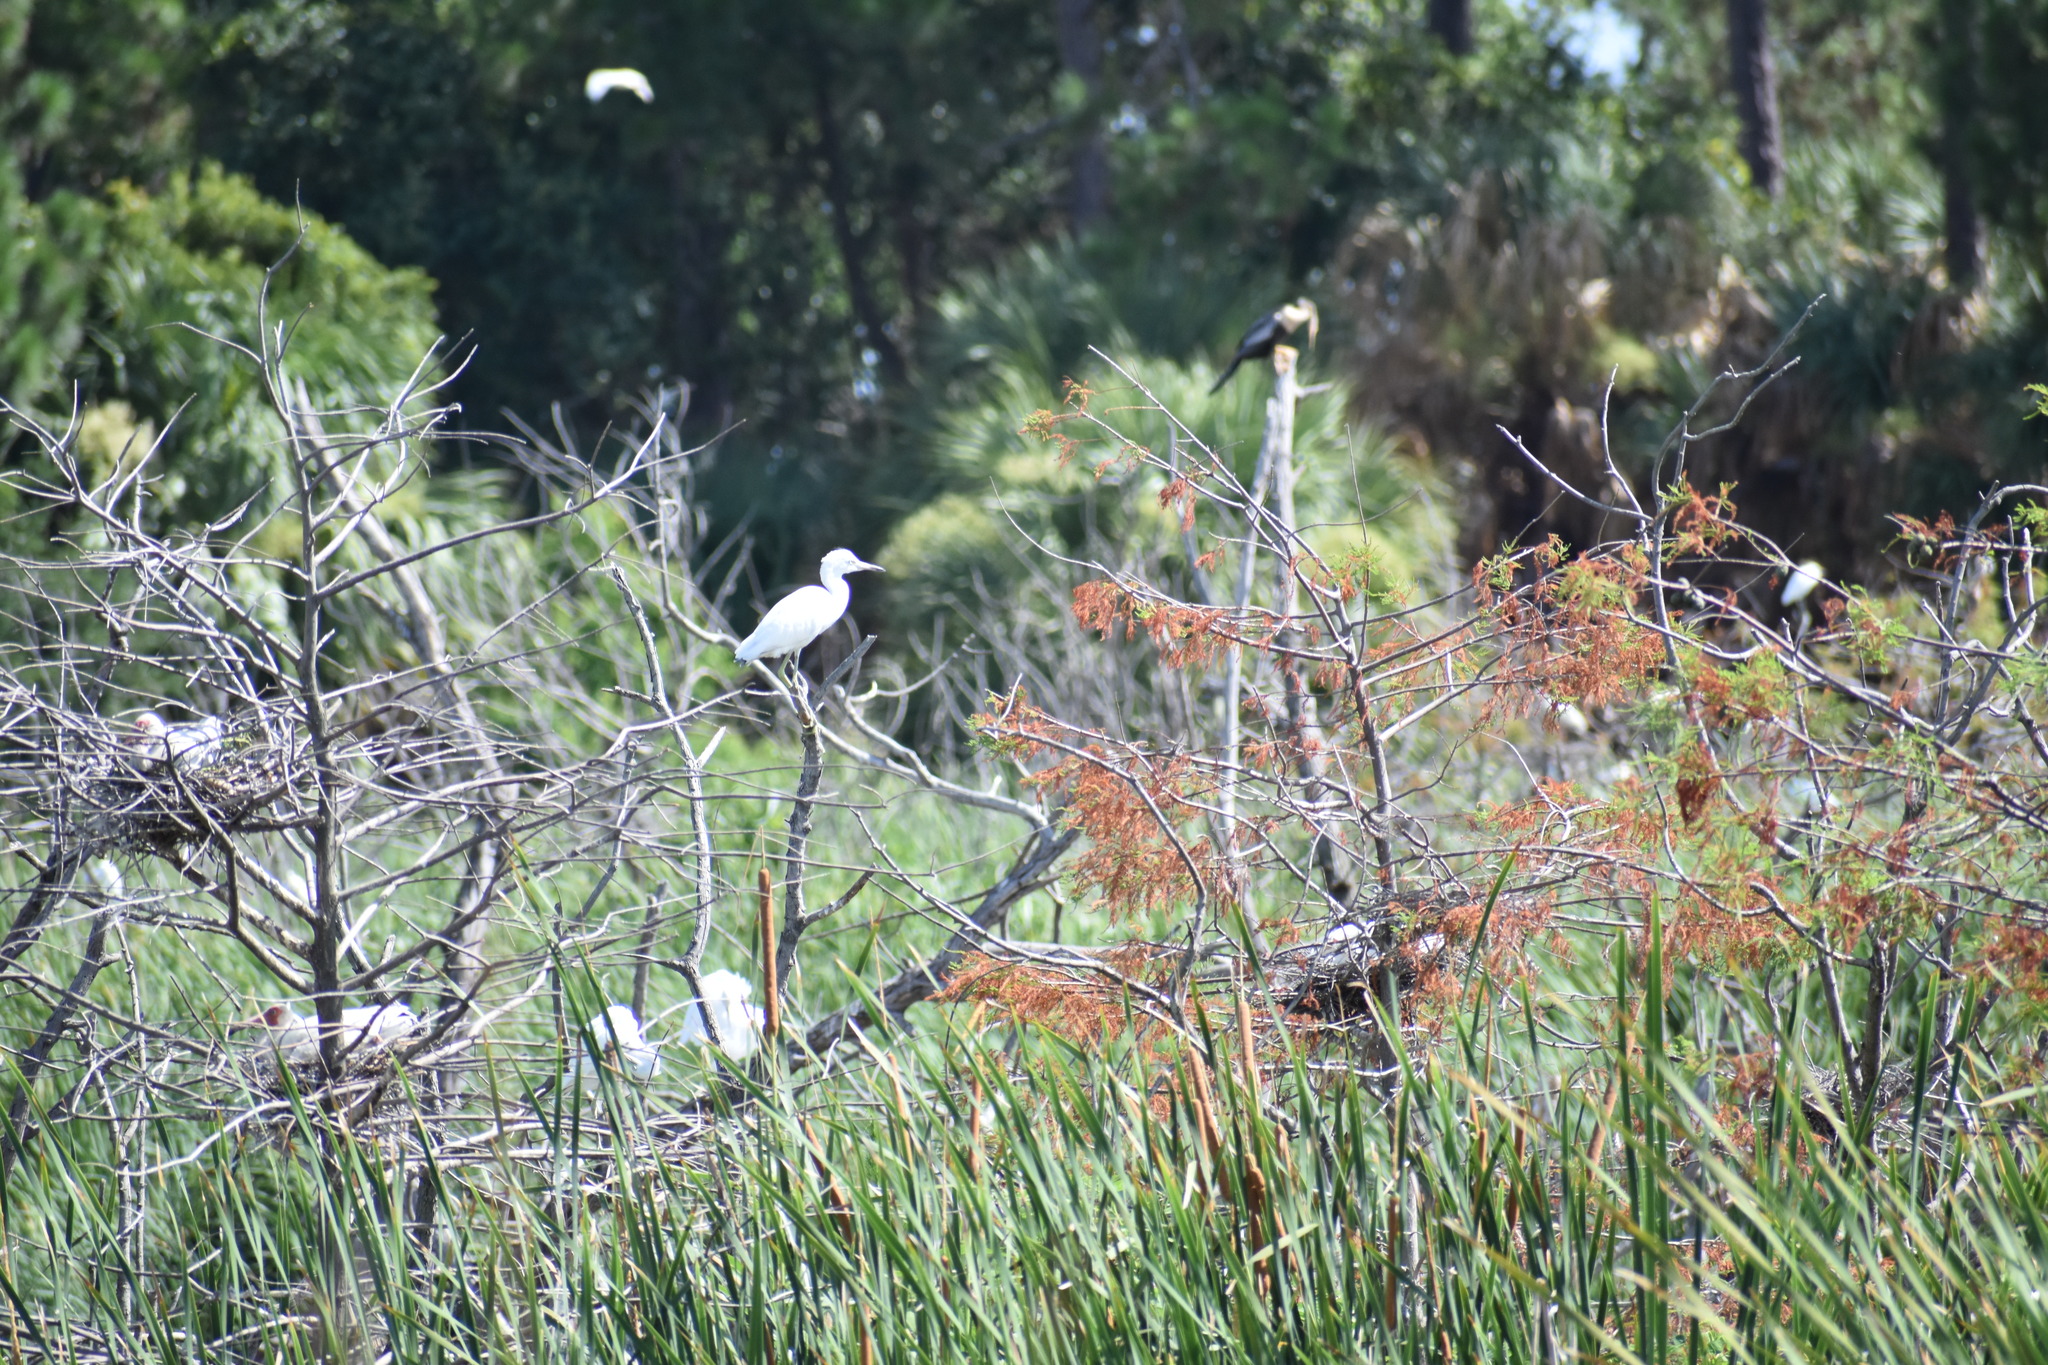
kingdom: Animalia
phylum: Chordata
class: Aves
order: Pelecaniformes
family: Ardeidae
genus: Egretta
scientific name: Egretta caerulea
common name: Little blue heron
